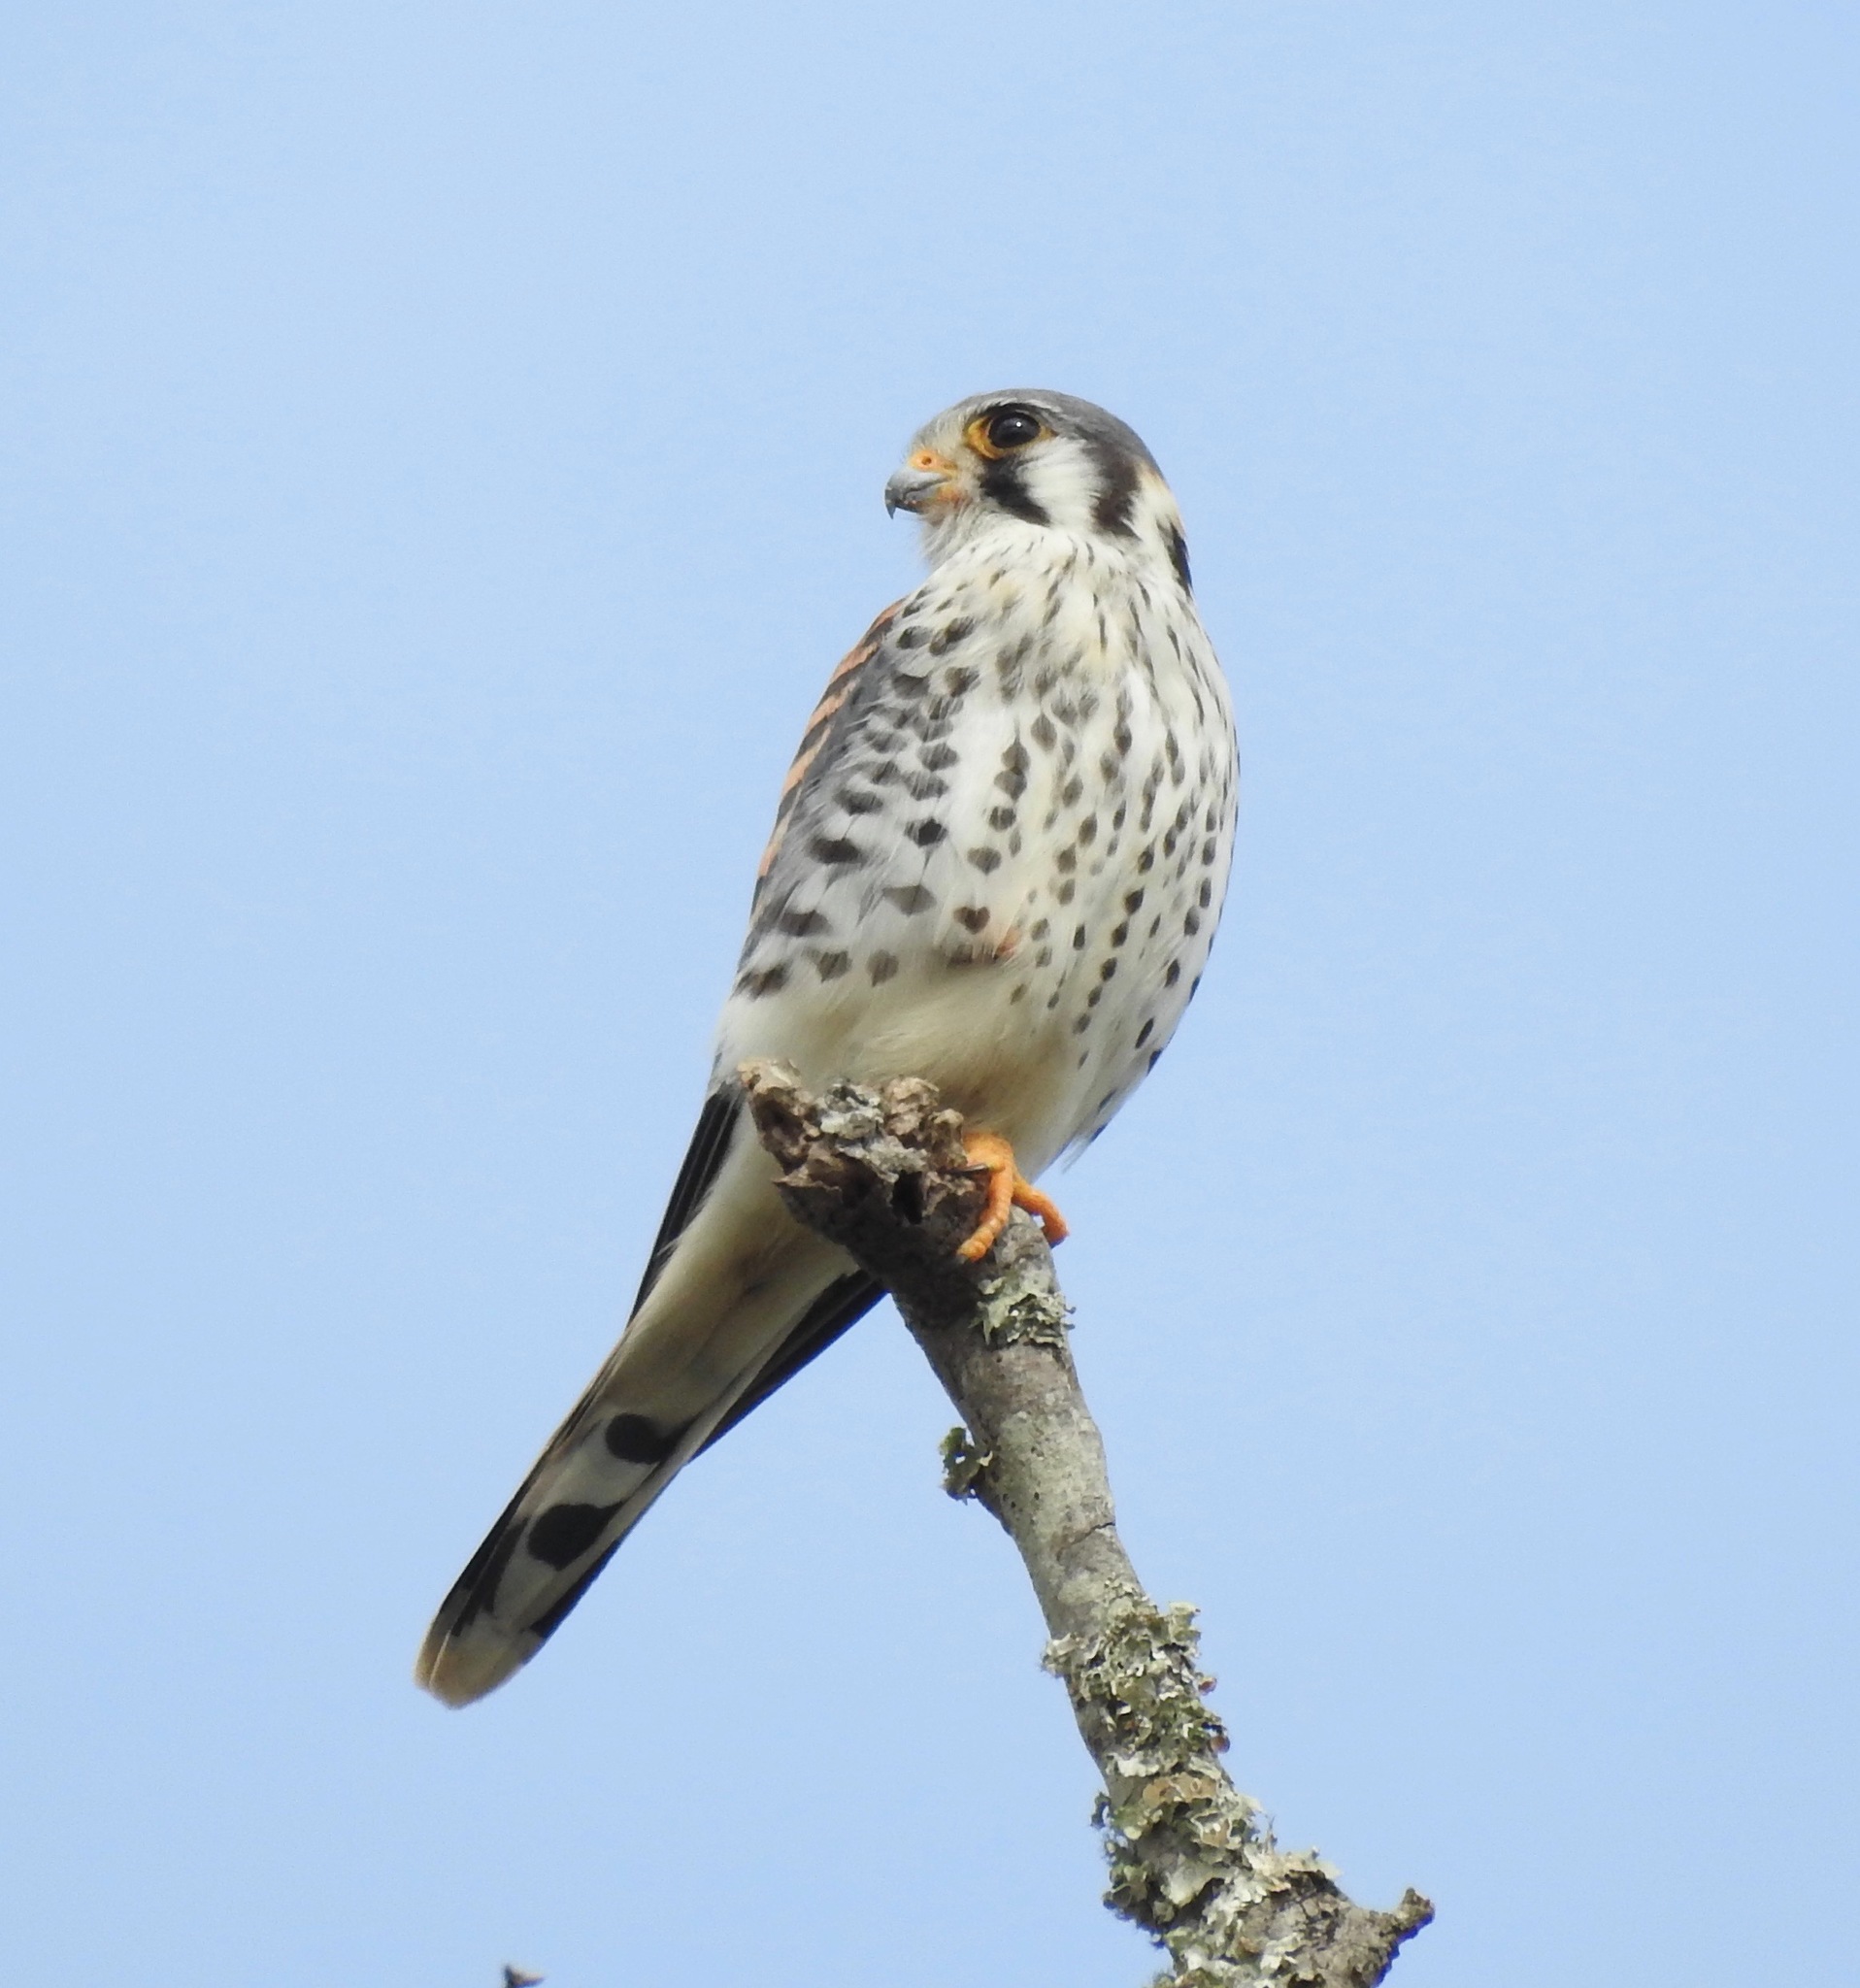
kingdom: Animalia
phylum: Chordata
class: Aves
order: Falconiformes
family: Falconidae
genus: Falco
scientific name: Falco sparverius
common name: American kestrel
